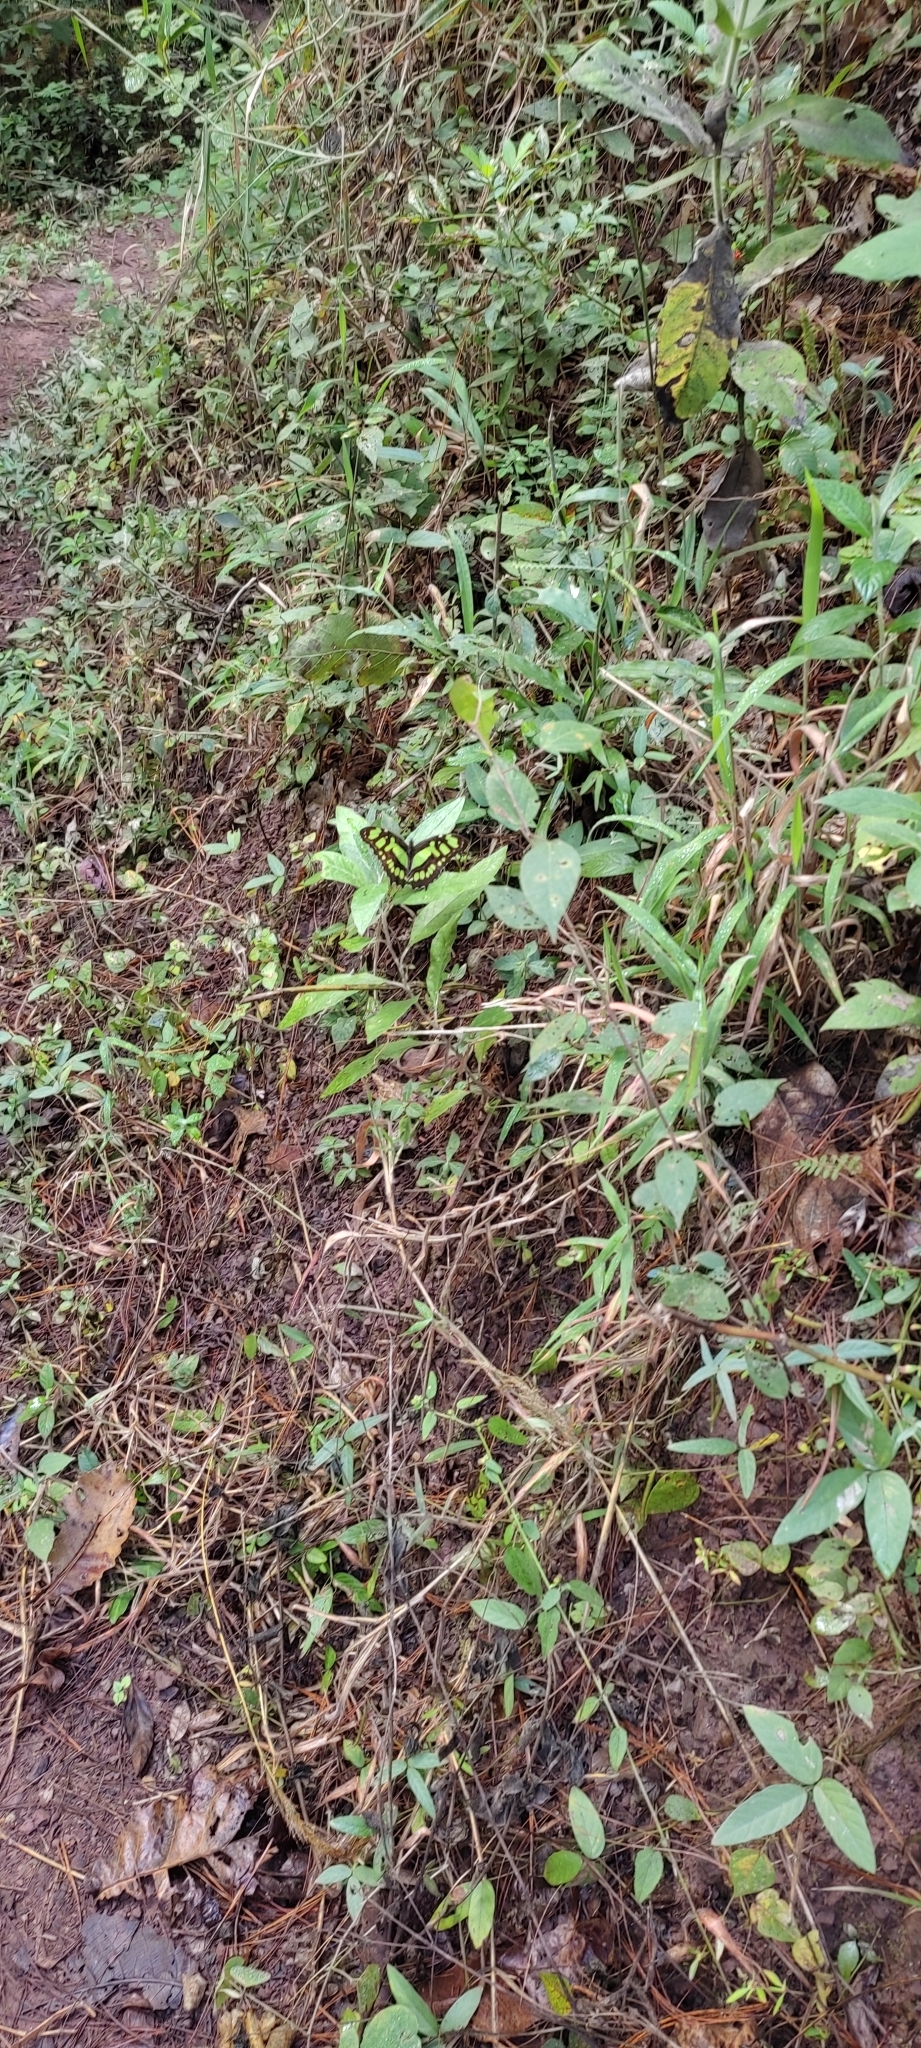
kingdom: Animalia
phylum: Arthropoda
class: Insecta
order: Lepidoptera
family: Nymphalidae
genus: Siproeta
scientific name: Siproeta stelenes
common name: Malachite
